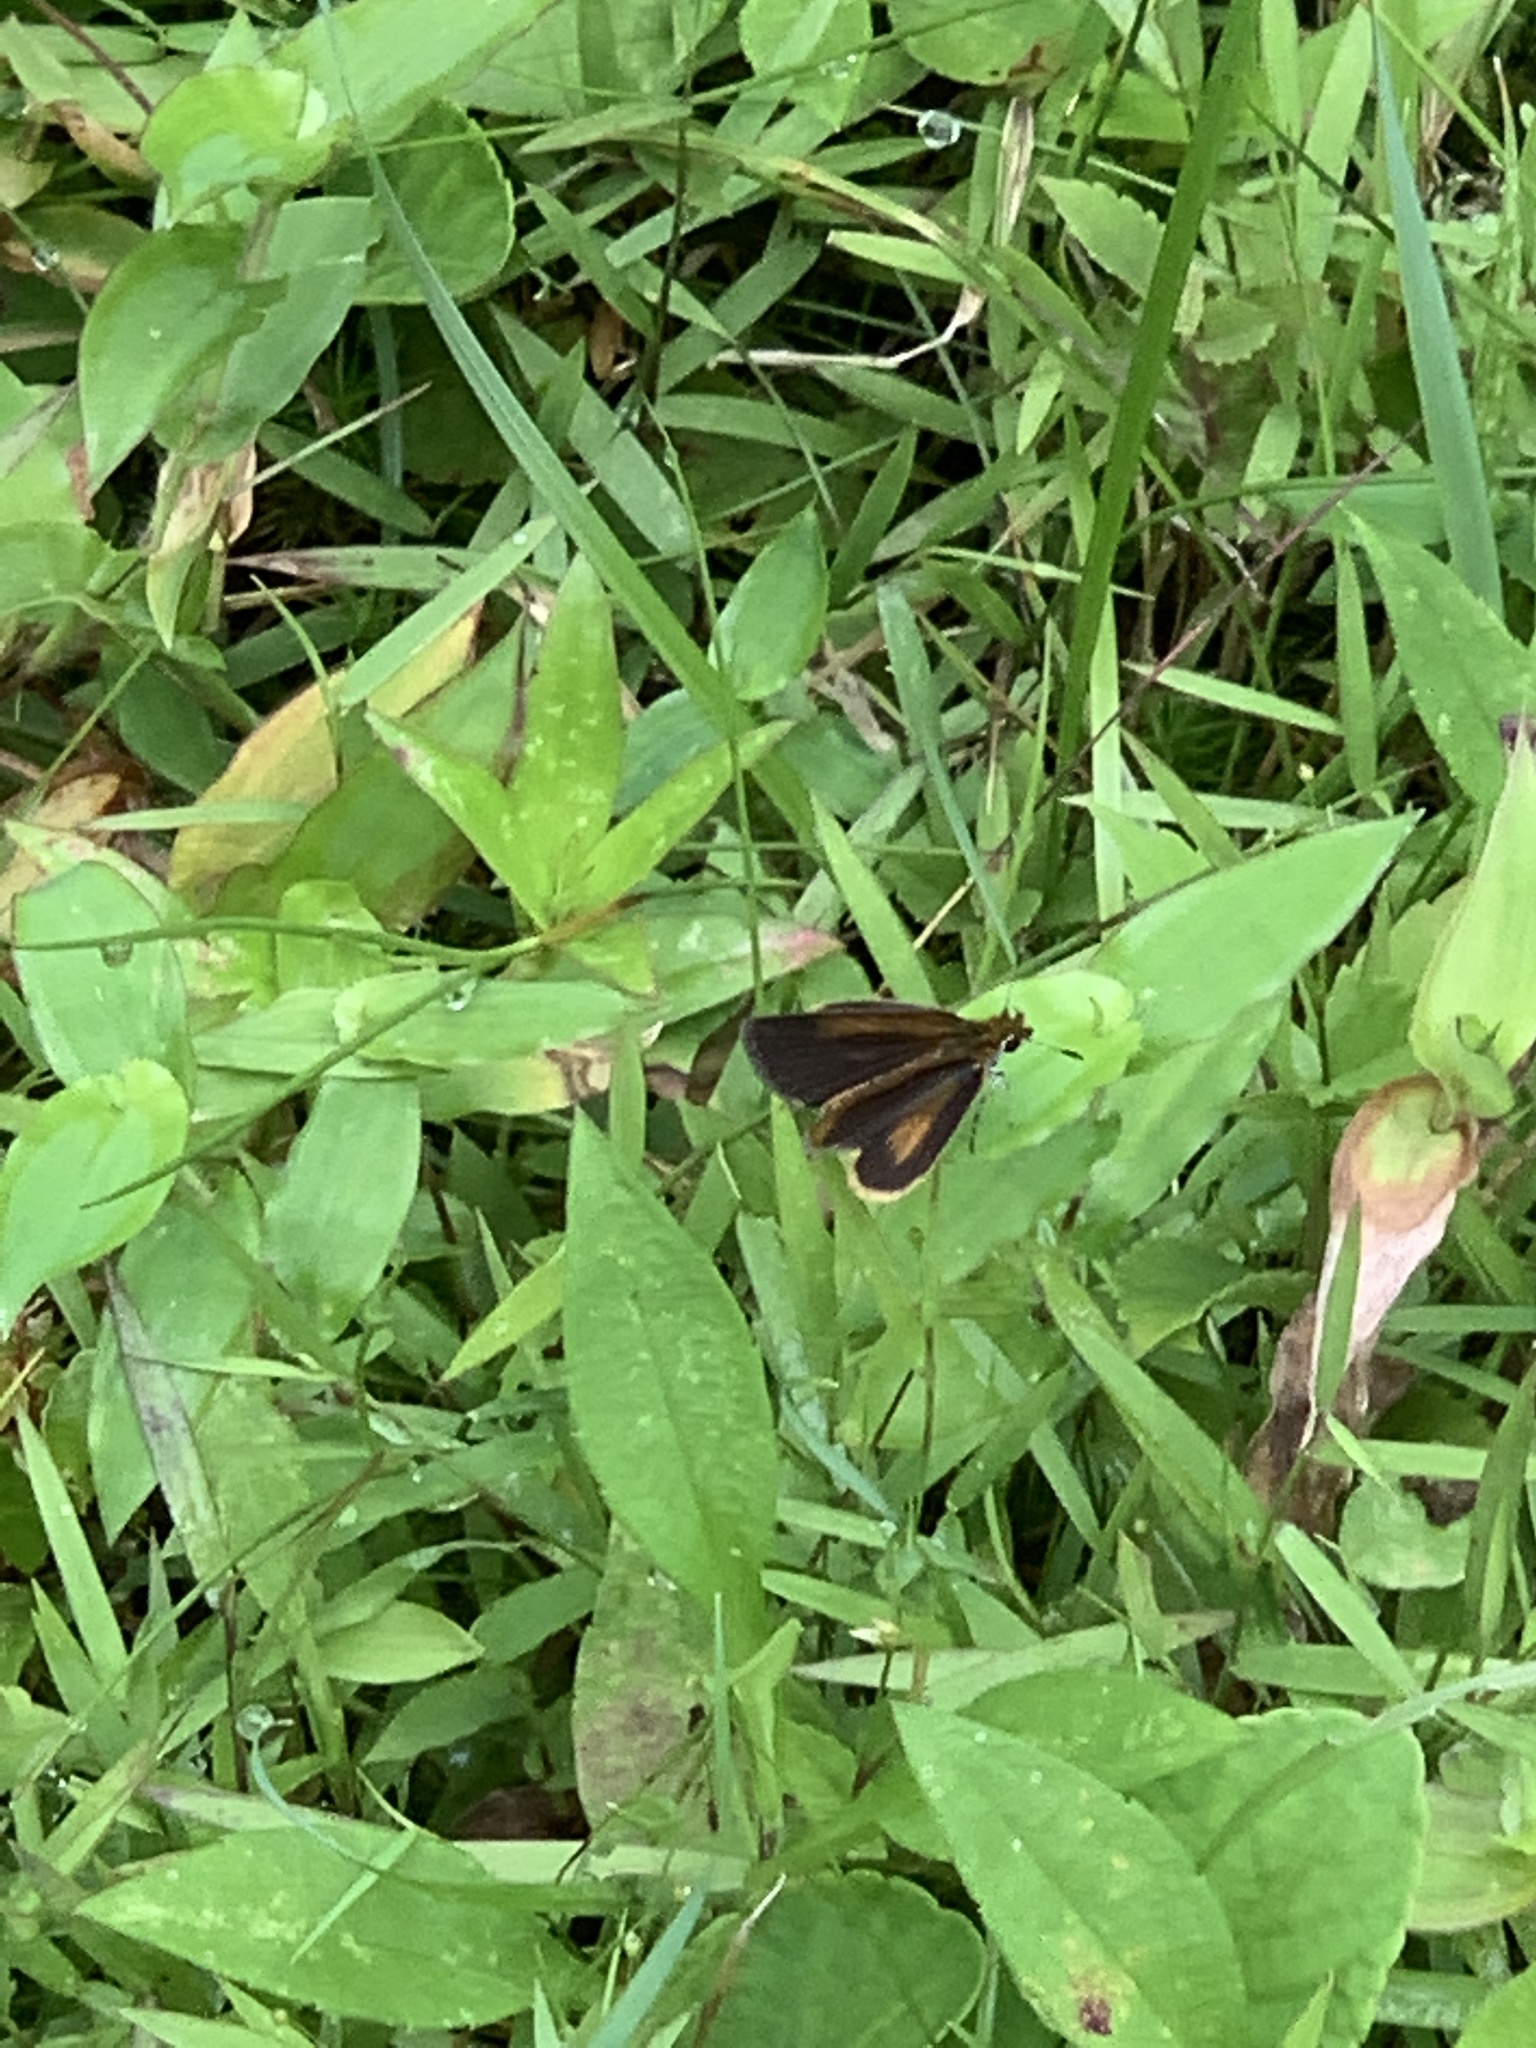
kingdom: Animalia
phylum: Arthropoda
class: Insecta
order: Lepidoptera
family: Hesperiidae
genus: Ancyloxypha
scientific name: Ancyloxypha numitor
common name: Least skipper
